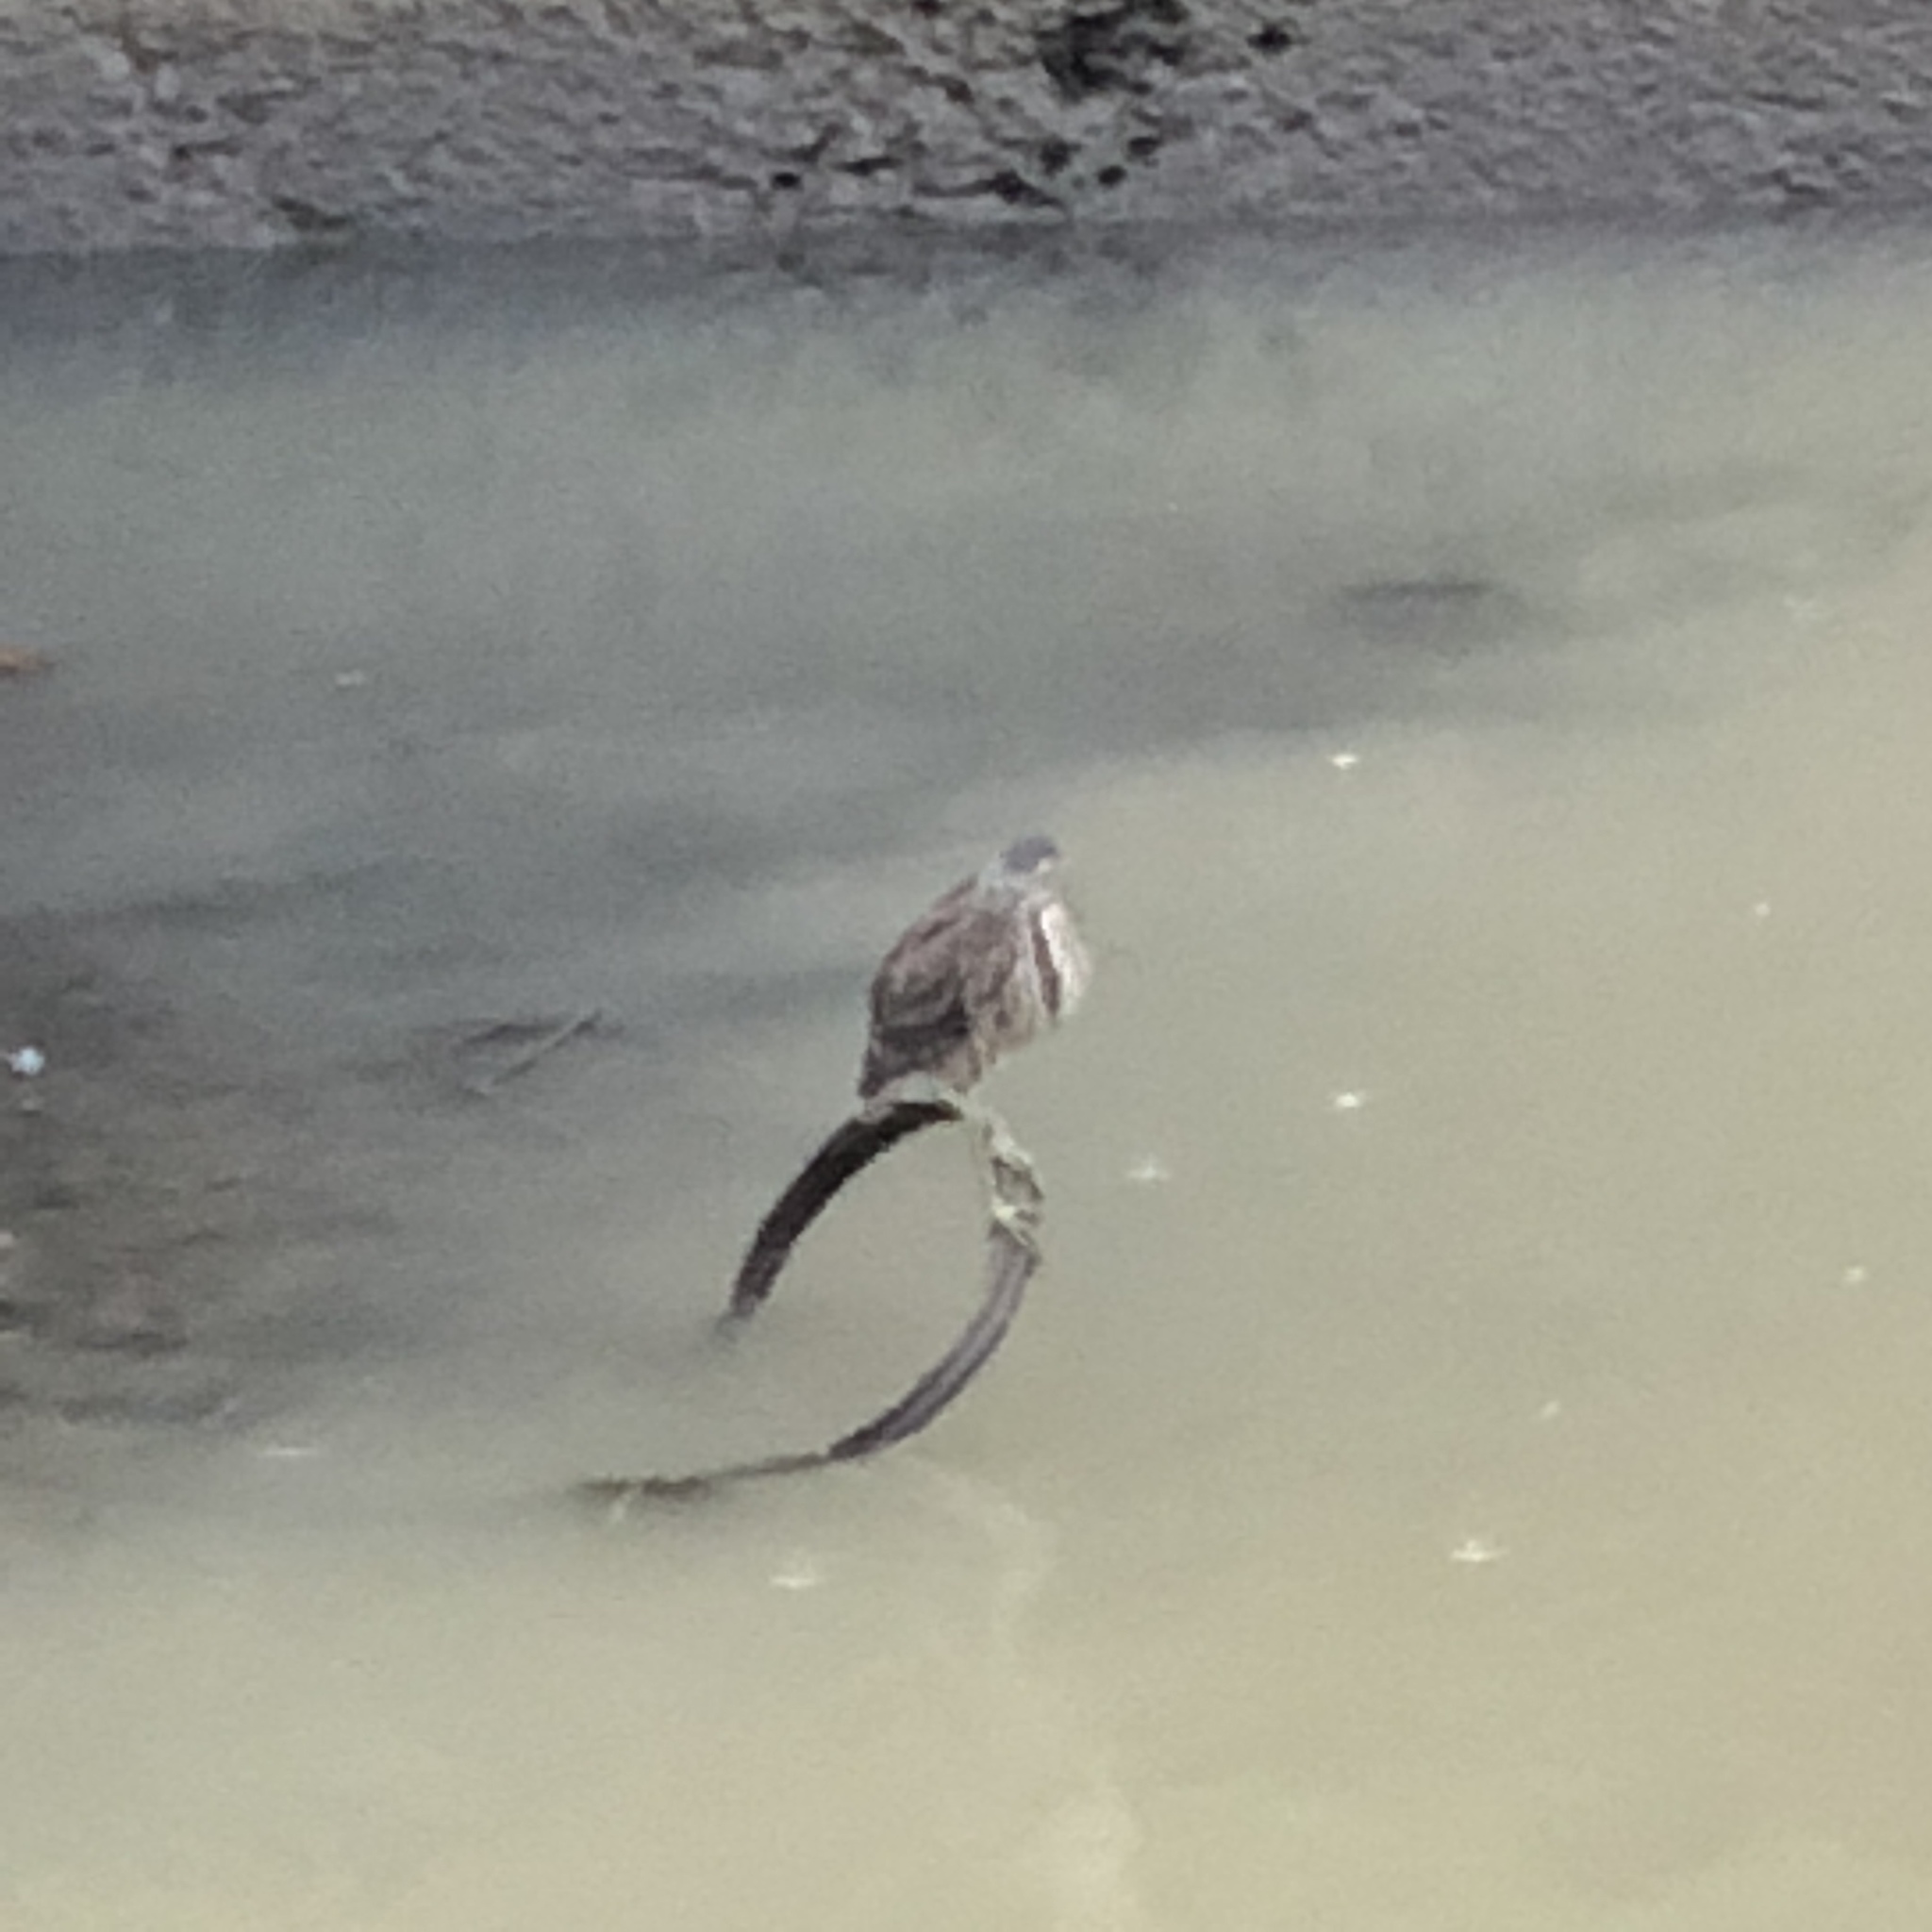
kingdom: Animalia
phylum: Chordata
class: Aves
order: Pelecaniformes
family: Ardeidae
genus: Nycticorax
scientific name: Nycticorax nycticorax
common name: Black-crowned night heron
